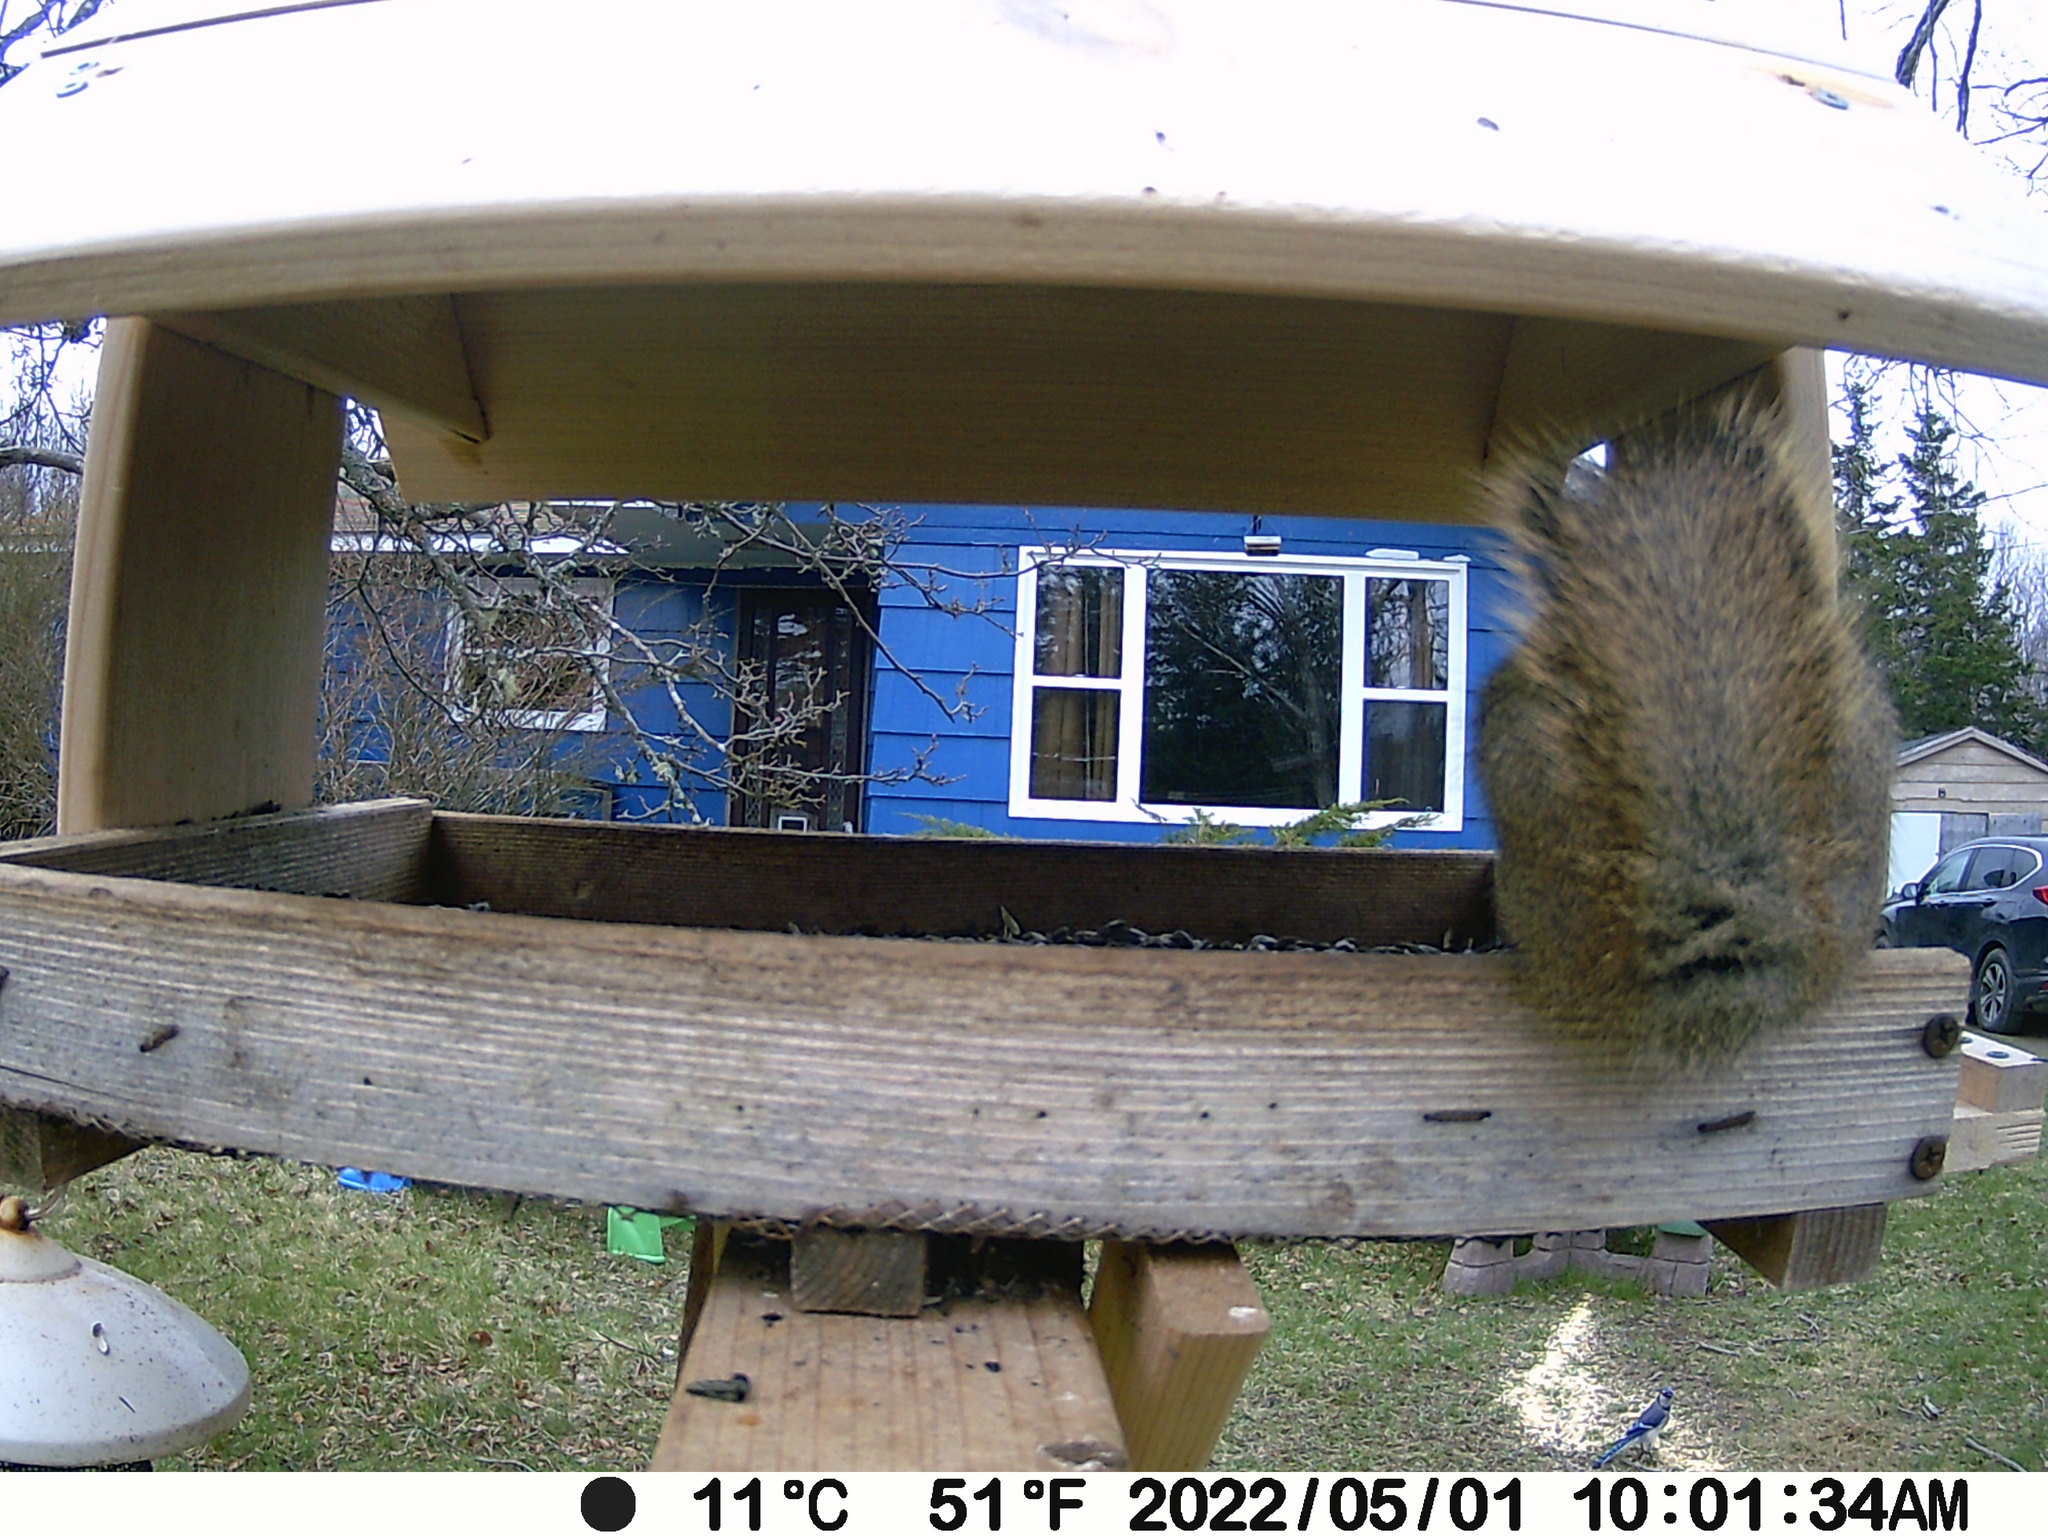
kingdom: Animalia
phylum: Chordata
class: Aves
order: Passeriformes
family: Corvidae
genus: Cyanocitta
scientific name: Cyanocitta cristata
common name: Blue jay
